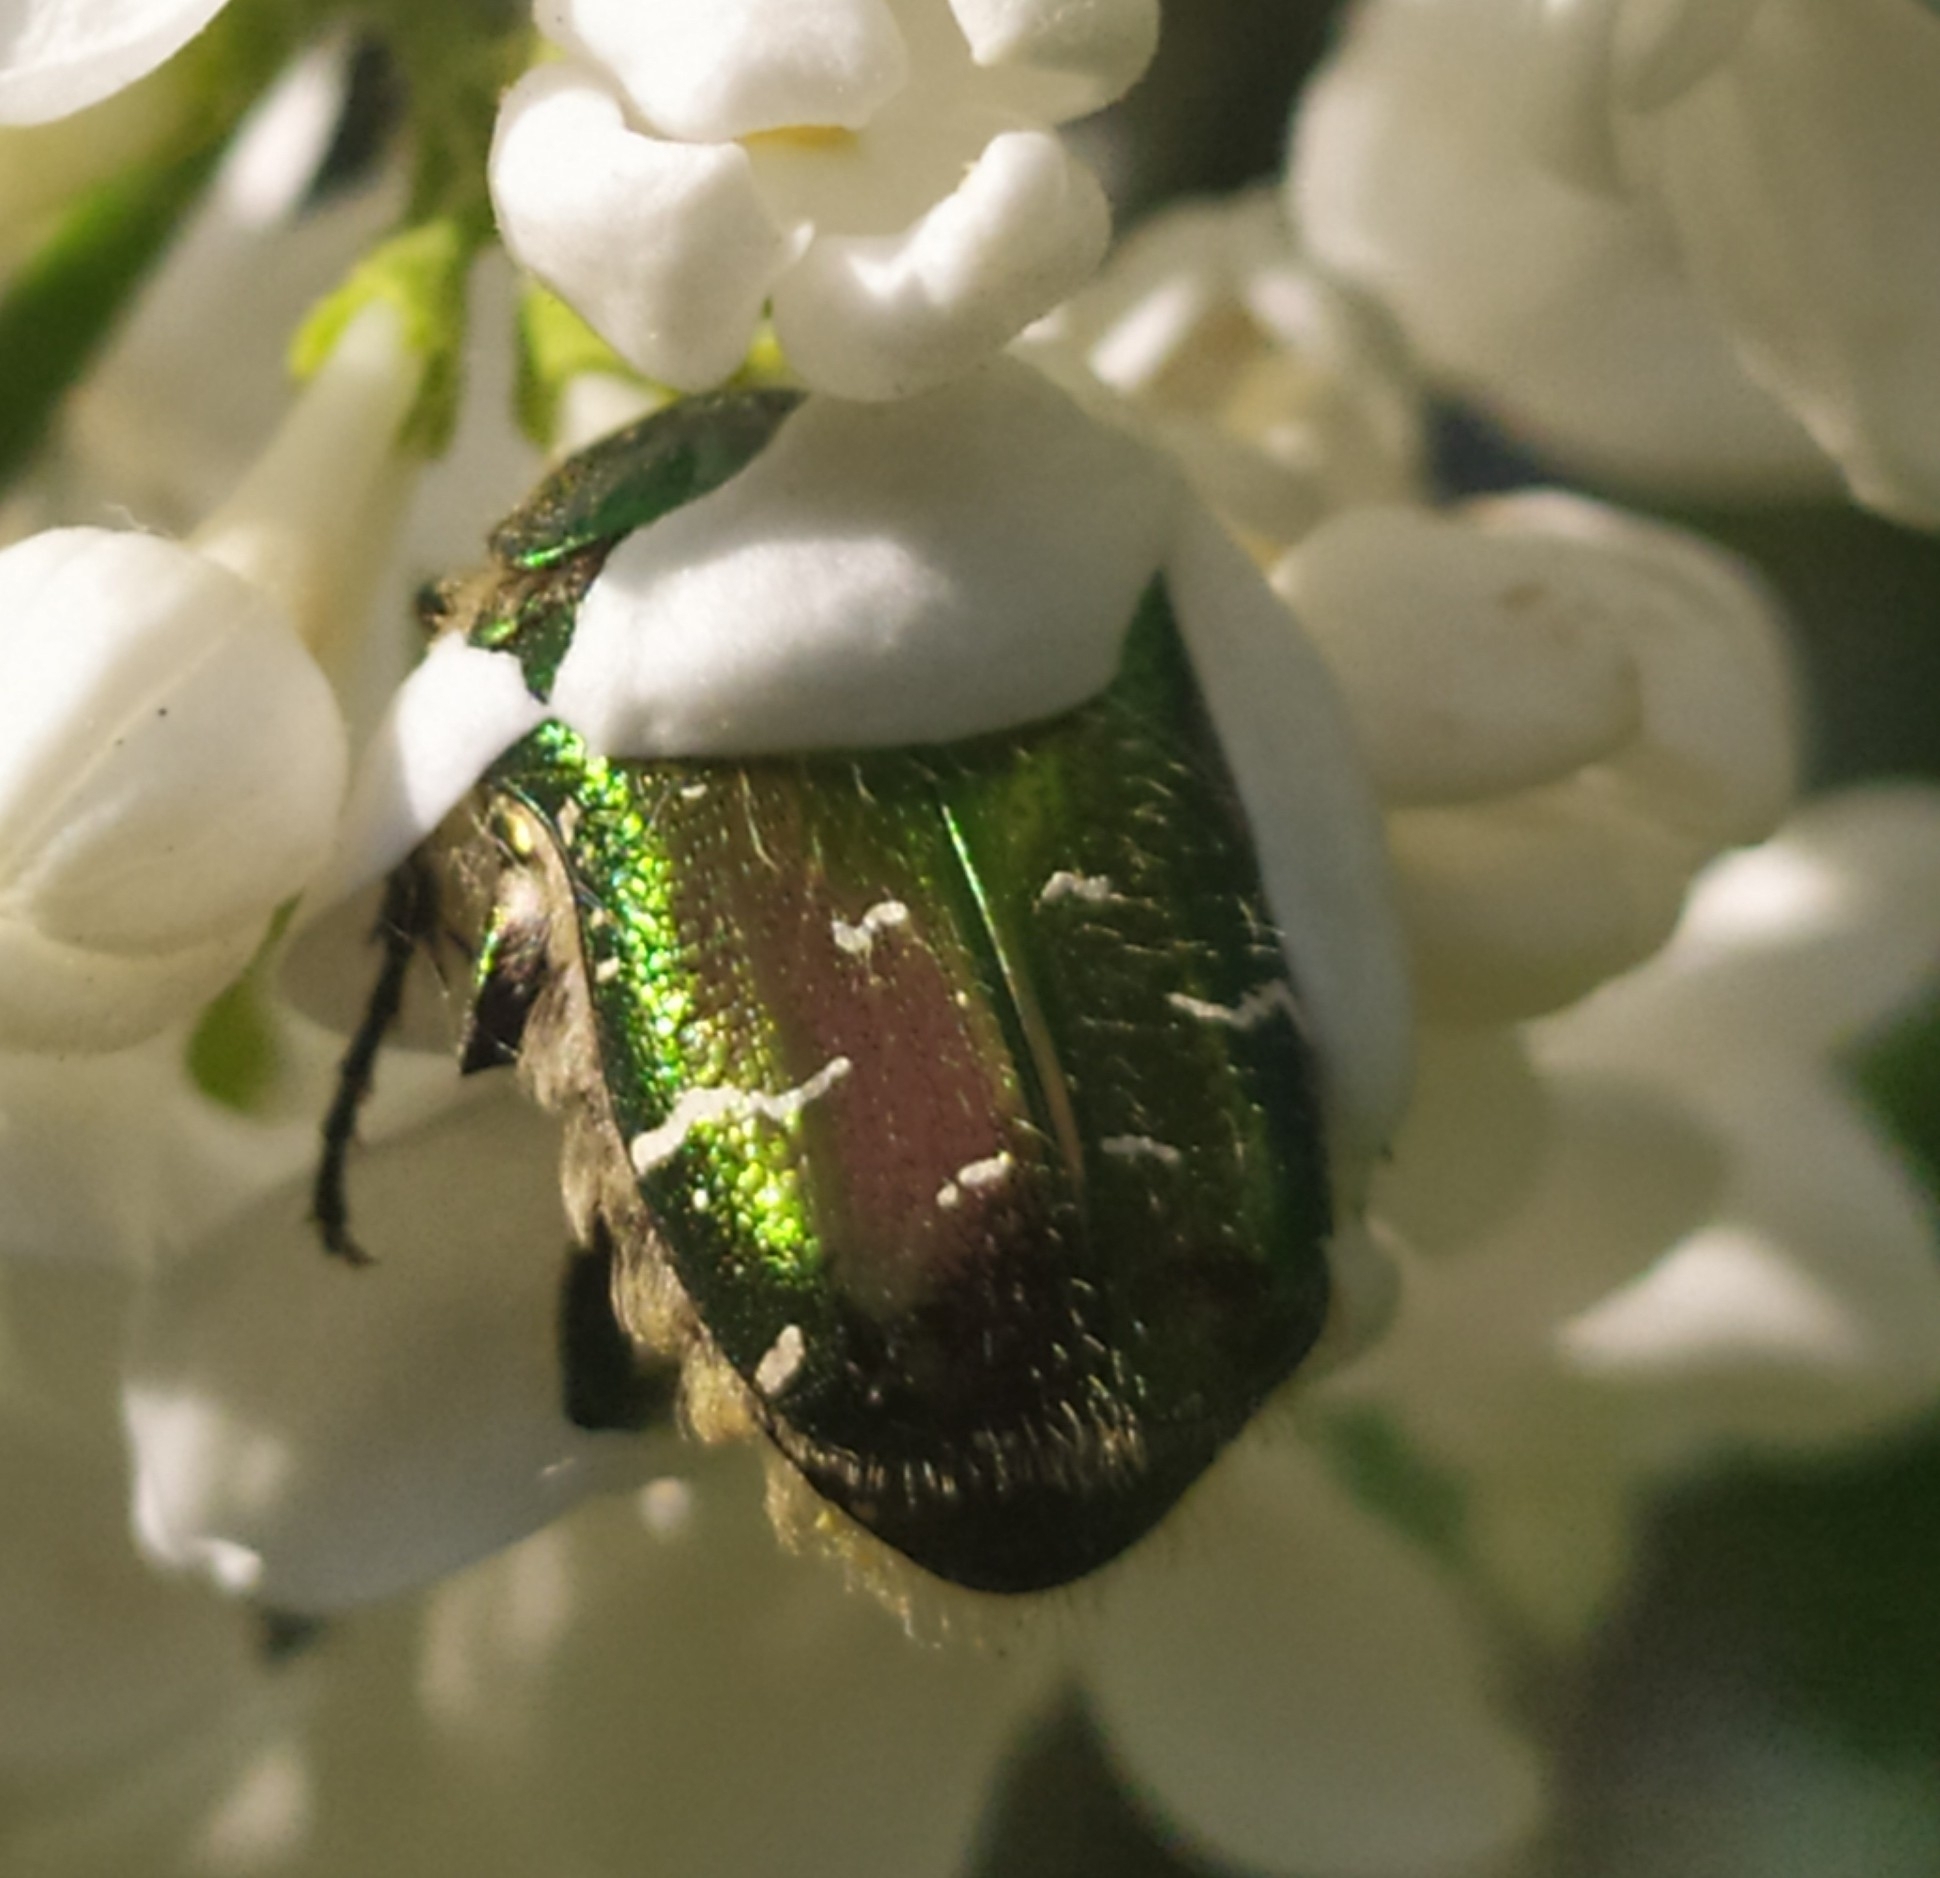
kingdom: Animalia
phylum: Arthropoda
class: Insecta
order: Coleoptera
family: Scarabaeidae
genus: Cetonia
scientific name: Cetonia aurata
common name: Rose chafer
